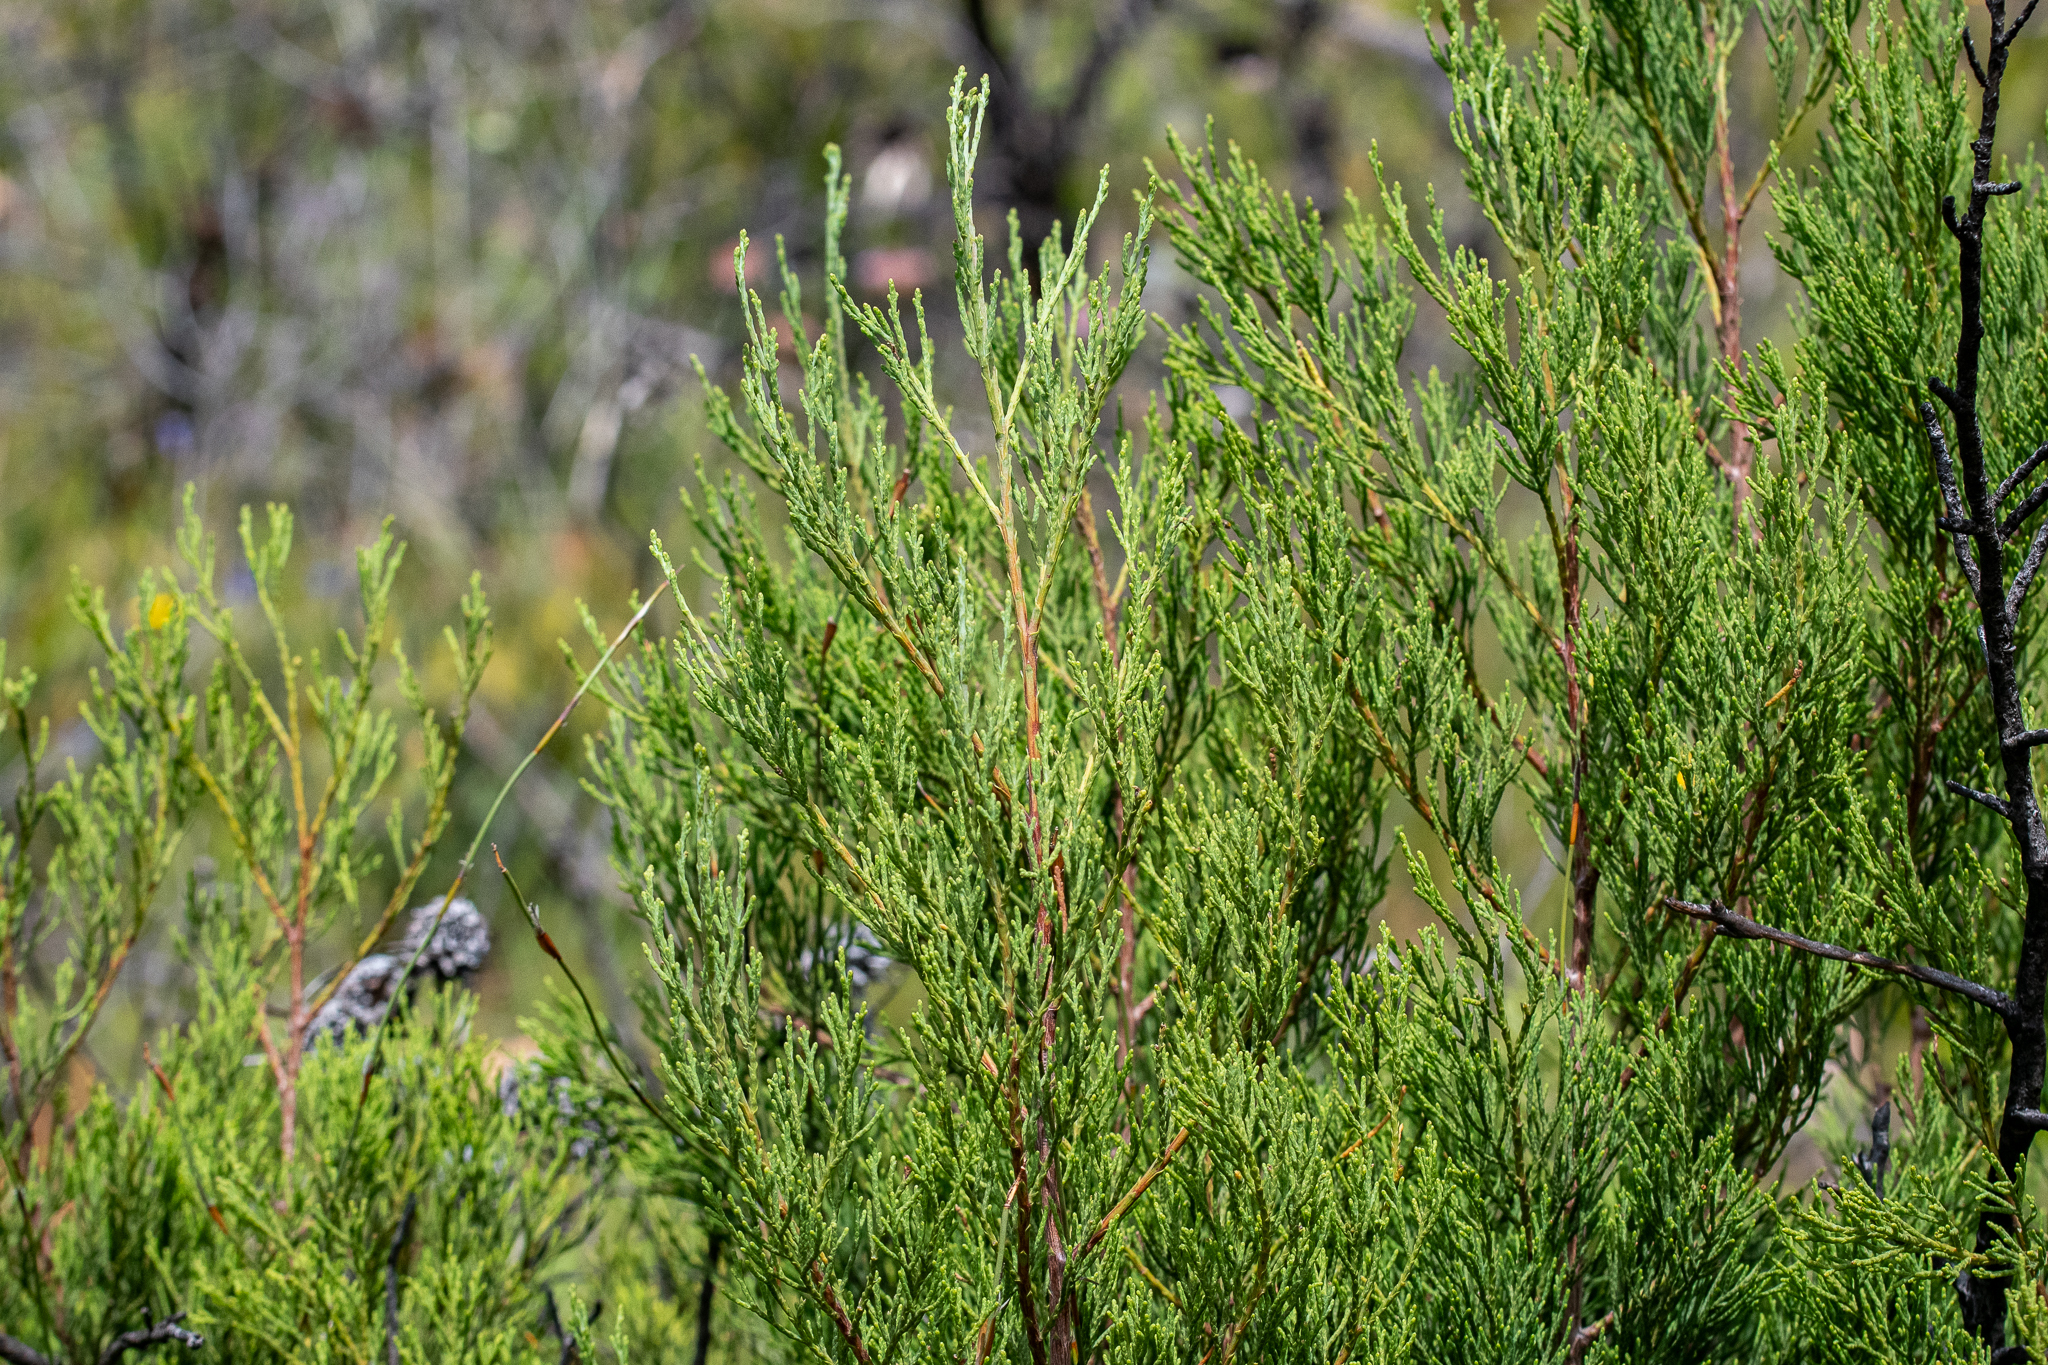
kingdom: Plantae
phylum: Tracheophyta
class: Pinopsida
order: Pinales
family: Cupressaceae
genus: Widdringtonia
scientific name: Widdringtonia nodiflora
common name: Cape cypress
